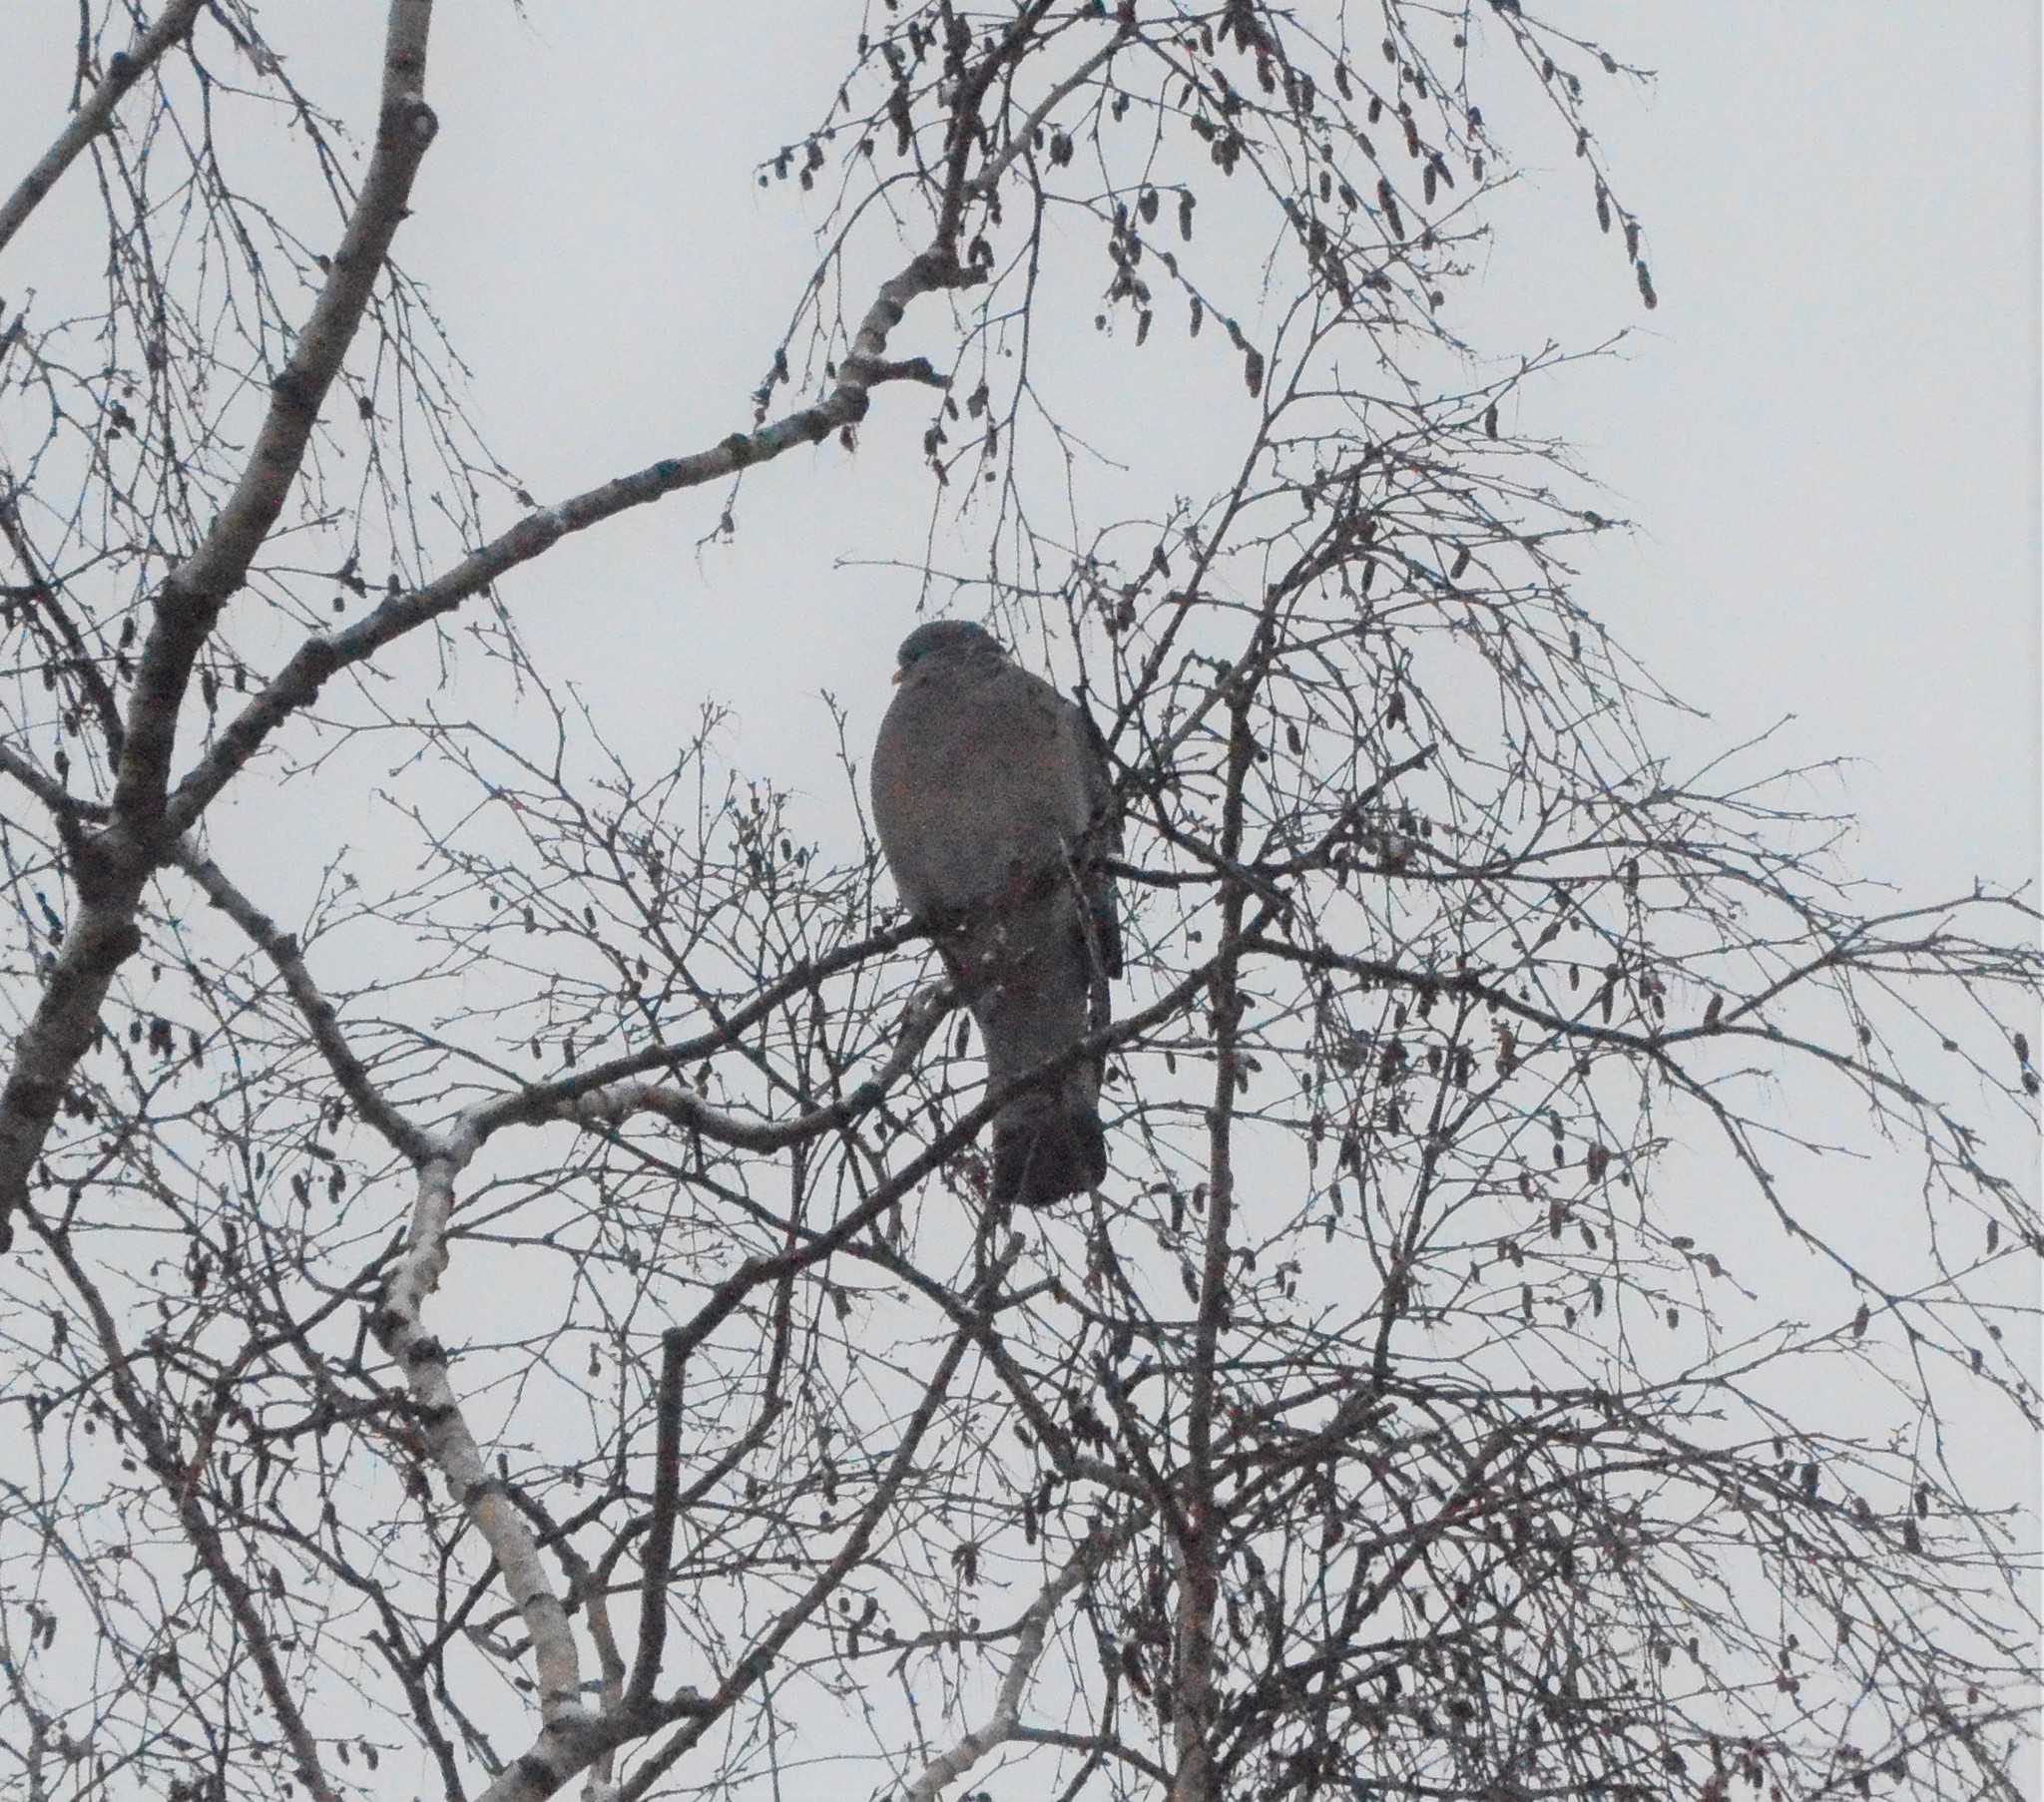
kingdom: Animalia
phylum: Chordata
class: Aves
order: Columbiformes
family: Columbidae
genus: Columba
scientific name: Columba palumbus
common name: Common wood pigeon
